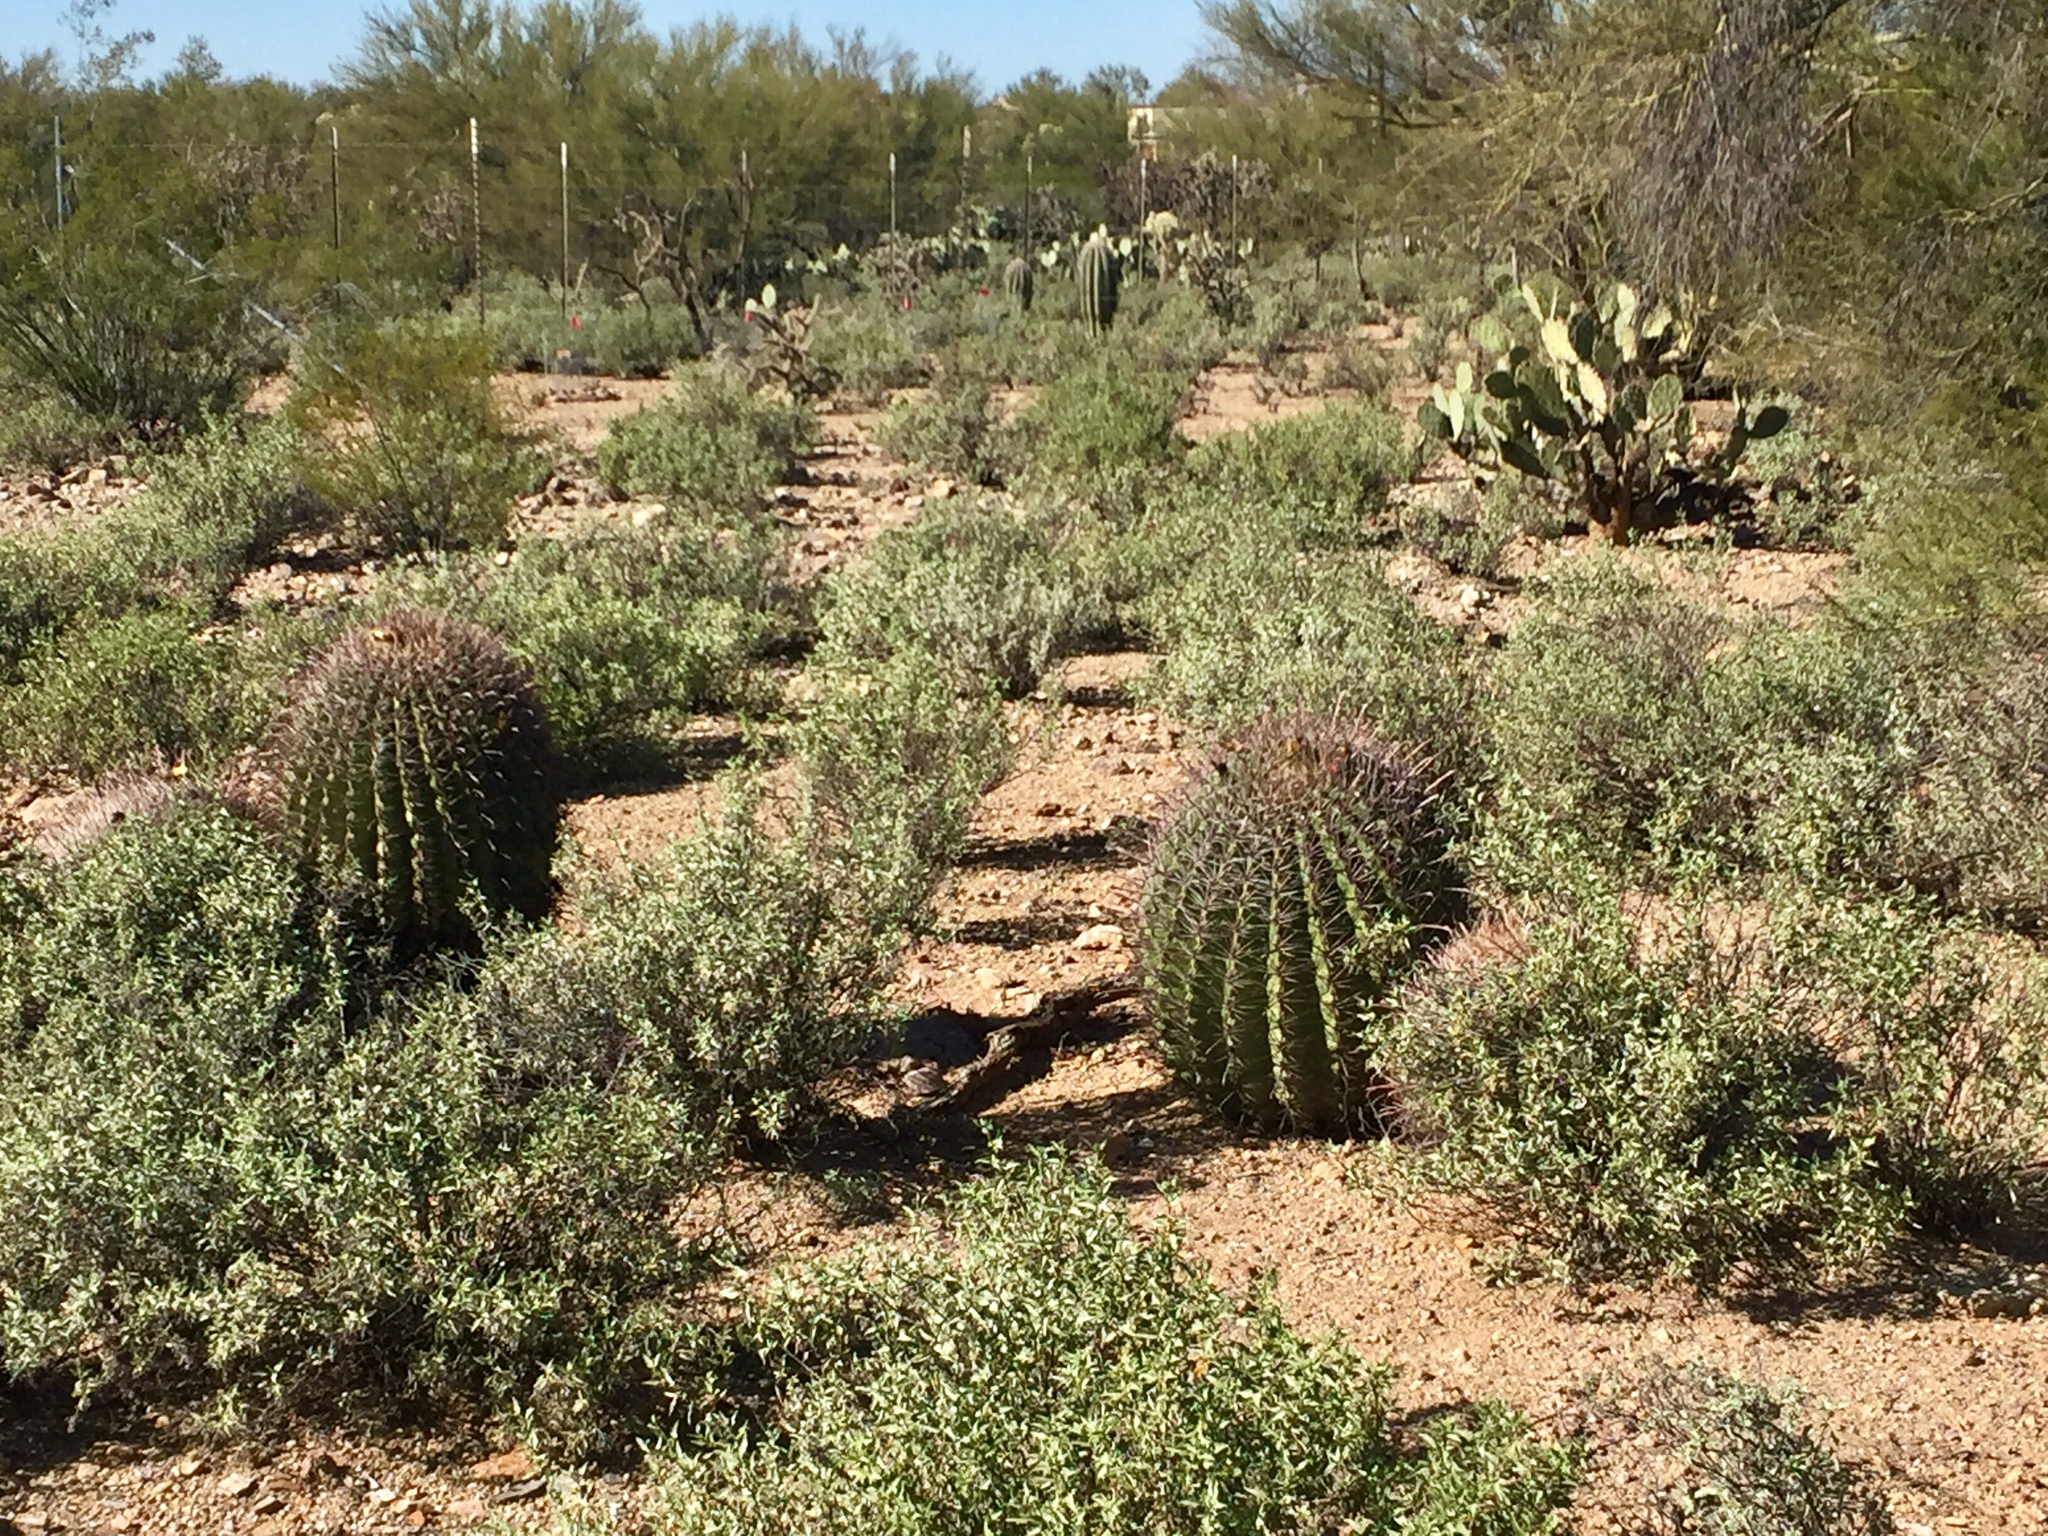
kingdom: Plantae
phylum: Tracheophyta
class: Magnoliopsida
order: Caryophyllales
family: Cactaceae
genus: Ferocactus
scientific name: Ferocactus wislizeni
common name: Candy barrel cactus
